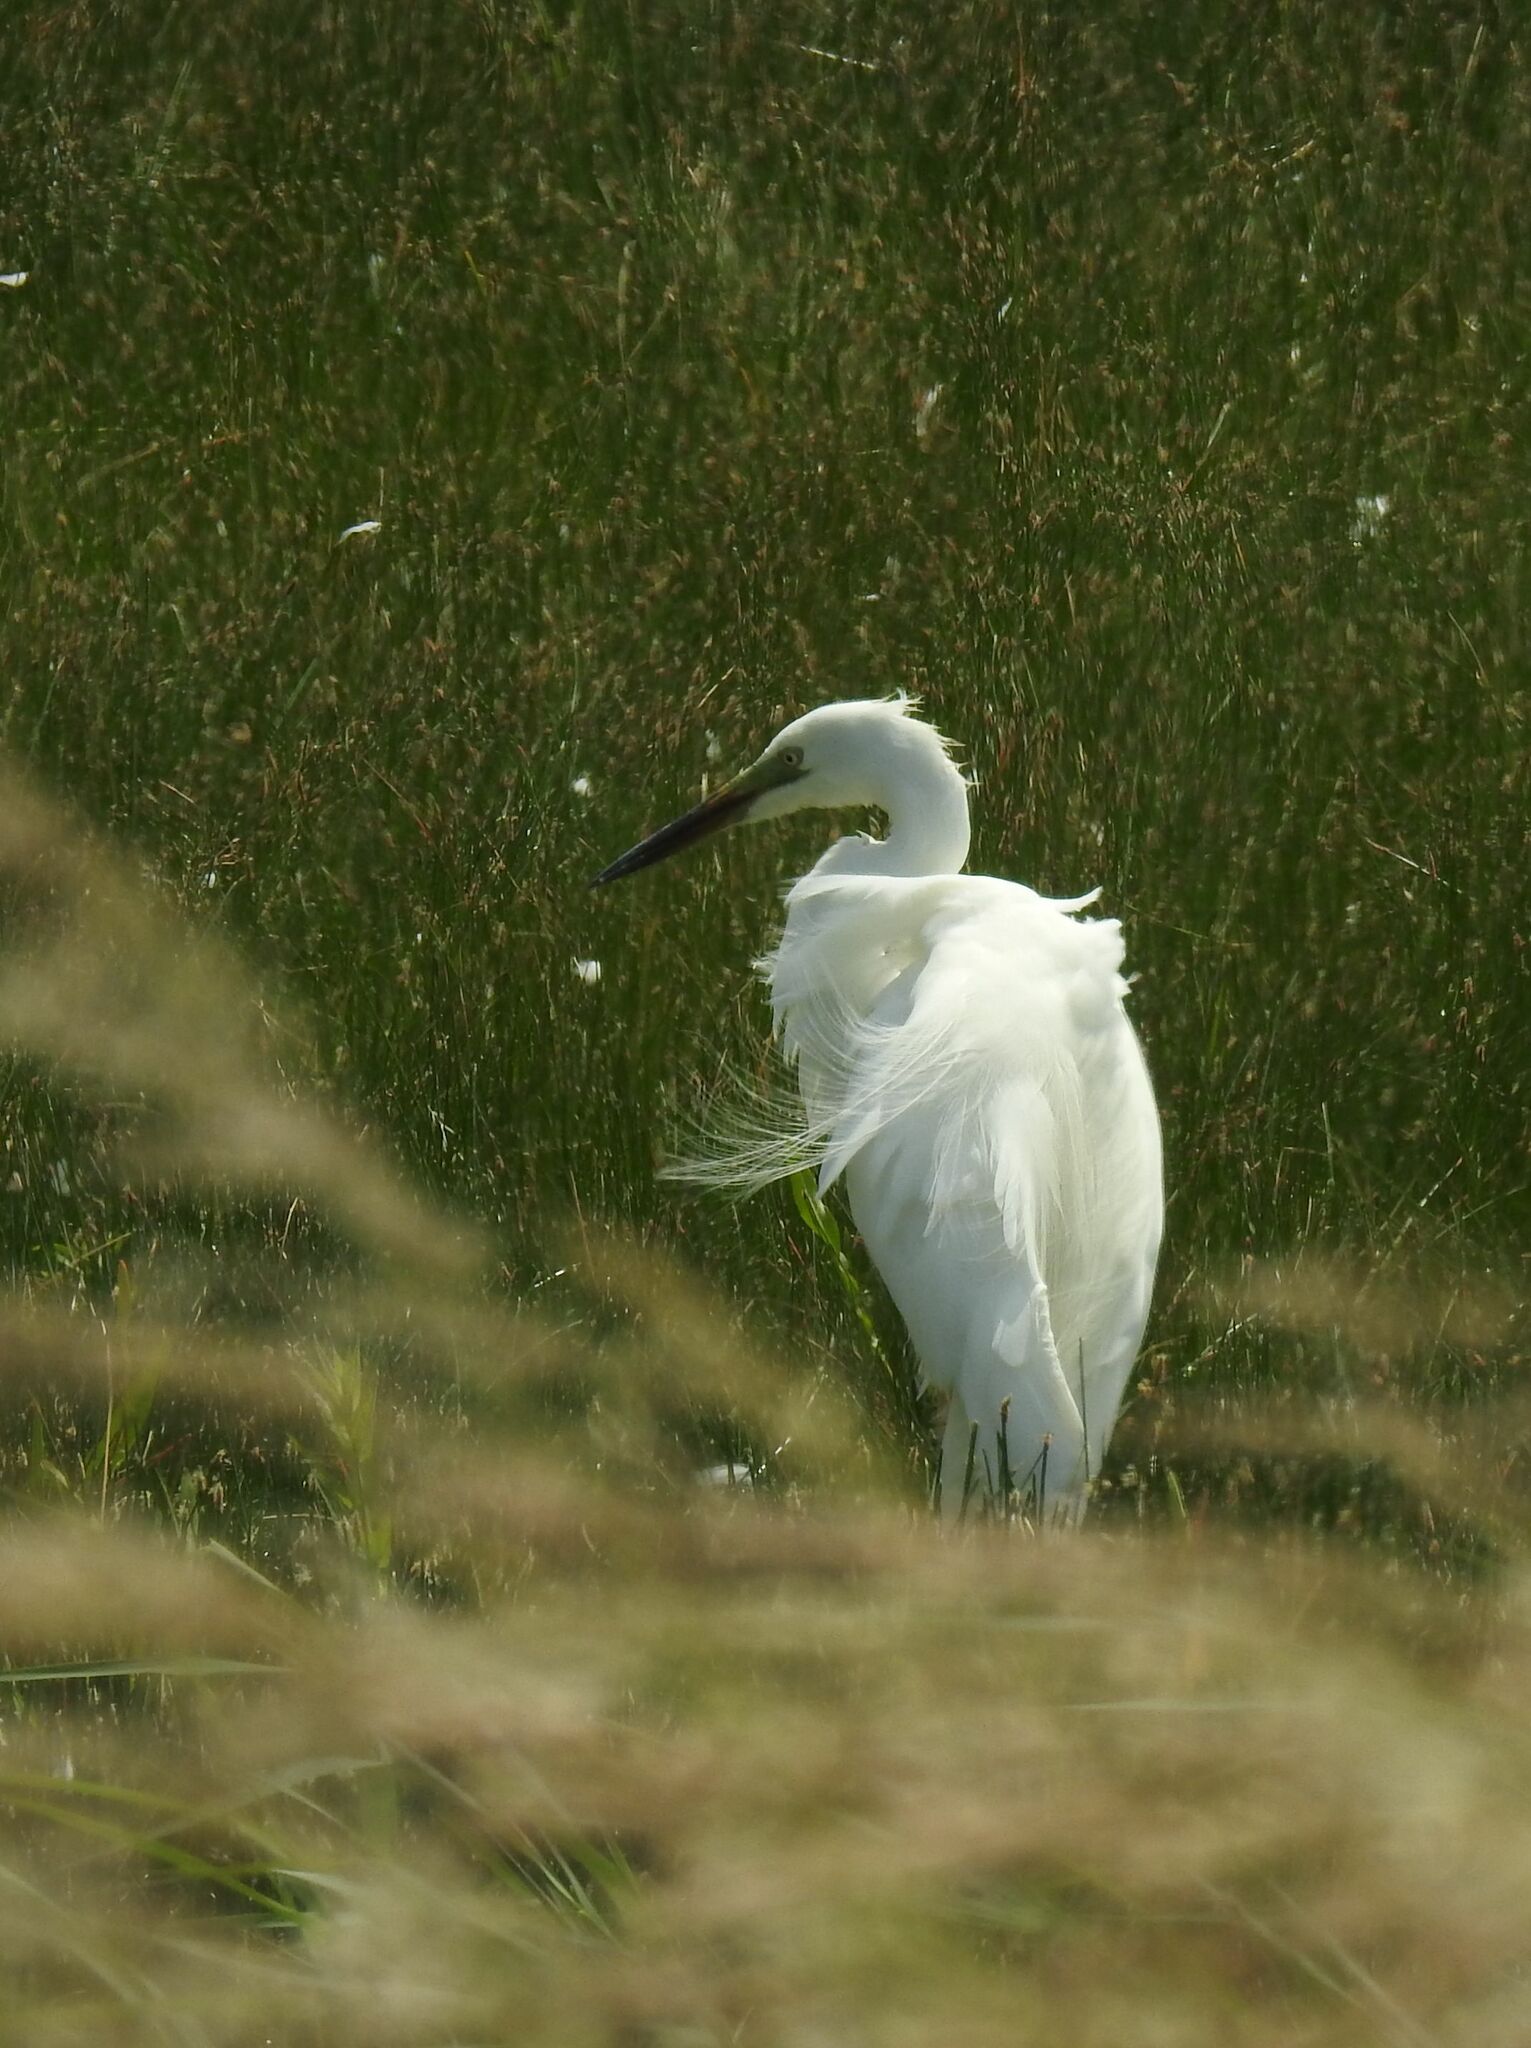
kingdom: Animalia
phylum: Chordata
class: Aves
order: Pelecaniformes
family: Ardeidae
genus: Ardea
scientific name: Ardea alba
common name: Great egret
